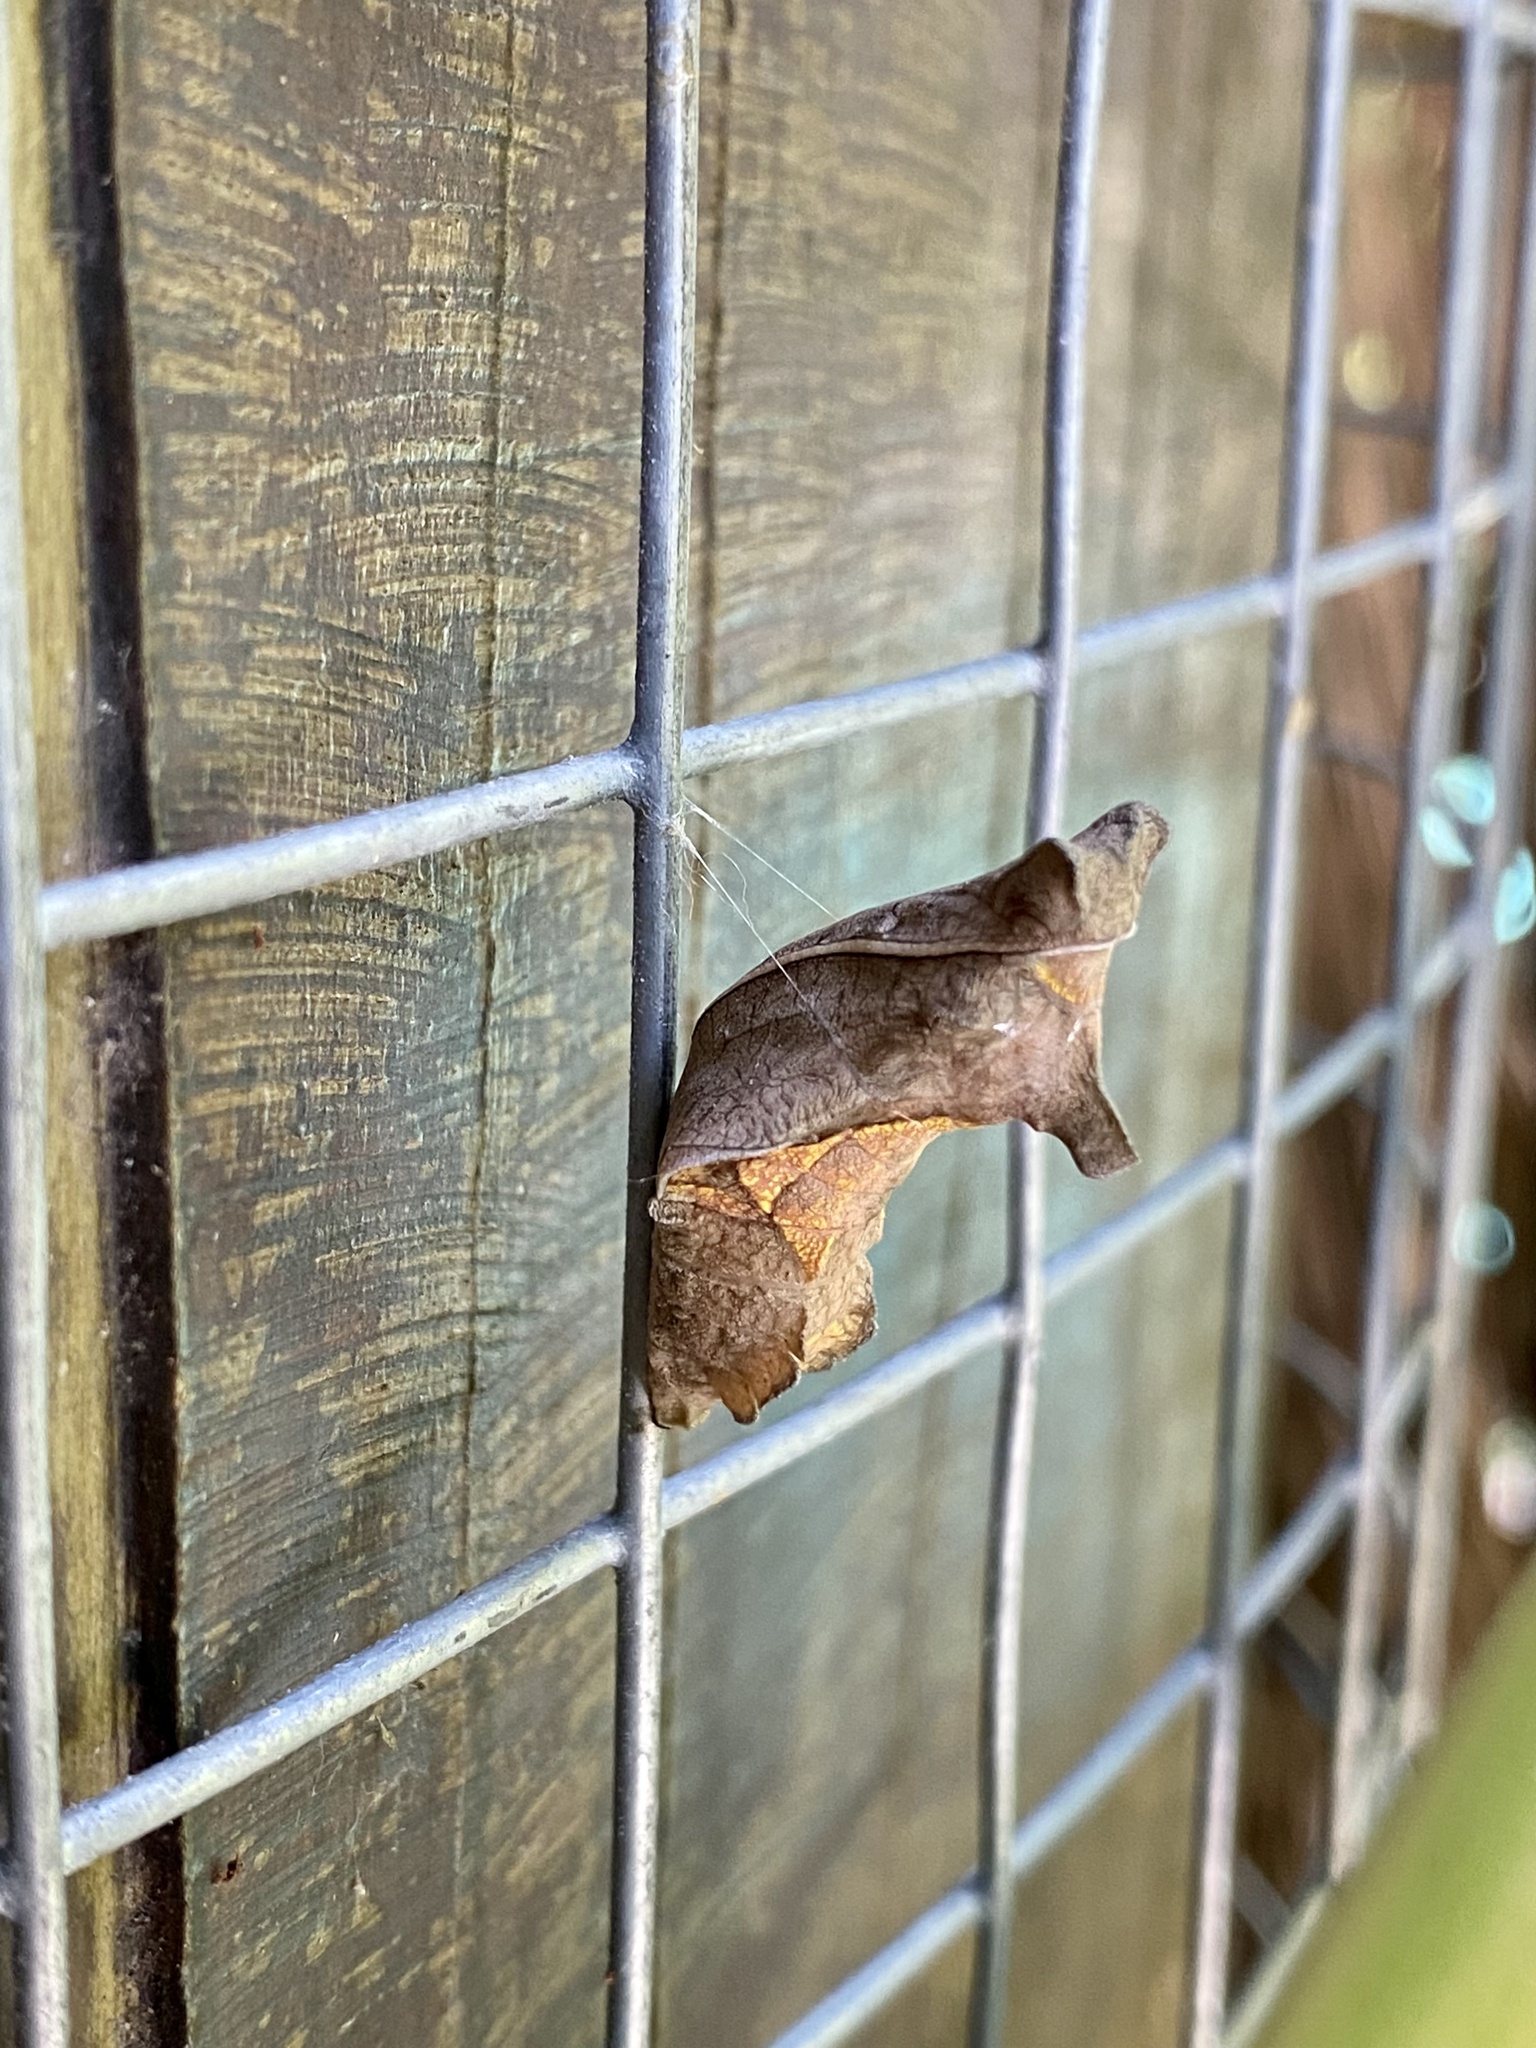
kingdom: Animalia
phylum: Arthropoda
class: Insecta
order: Lepidoptera
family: Papilionidae
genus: Battus
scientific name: Battus polydamas
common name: Polydamas swallowtail
